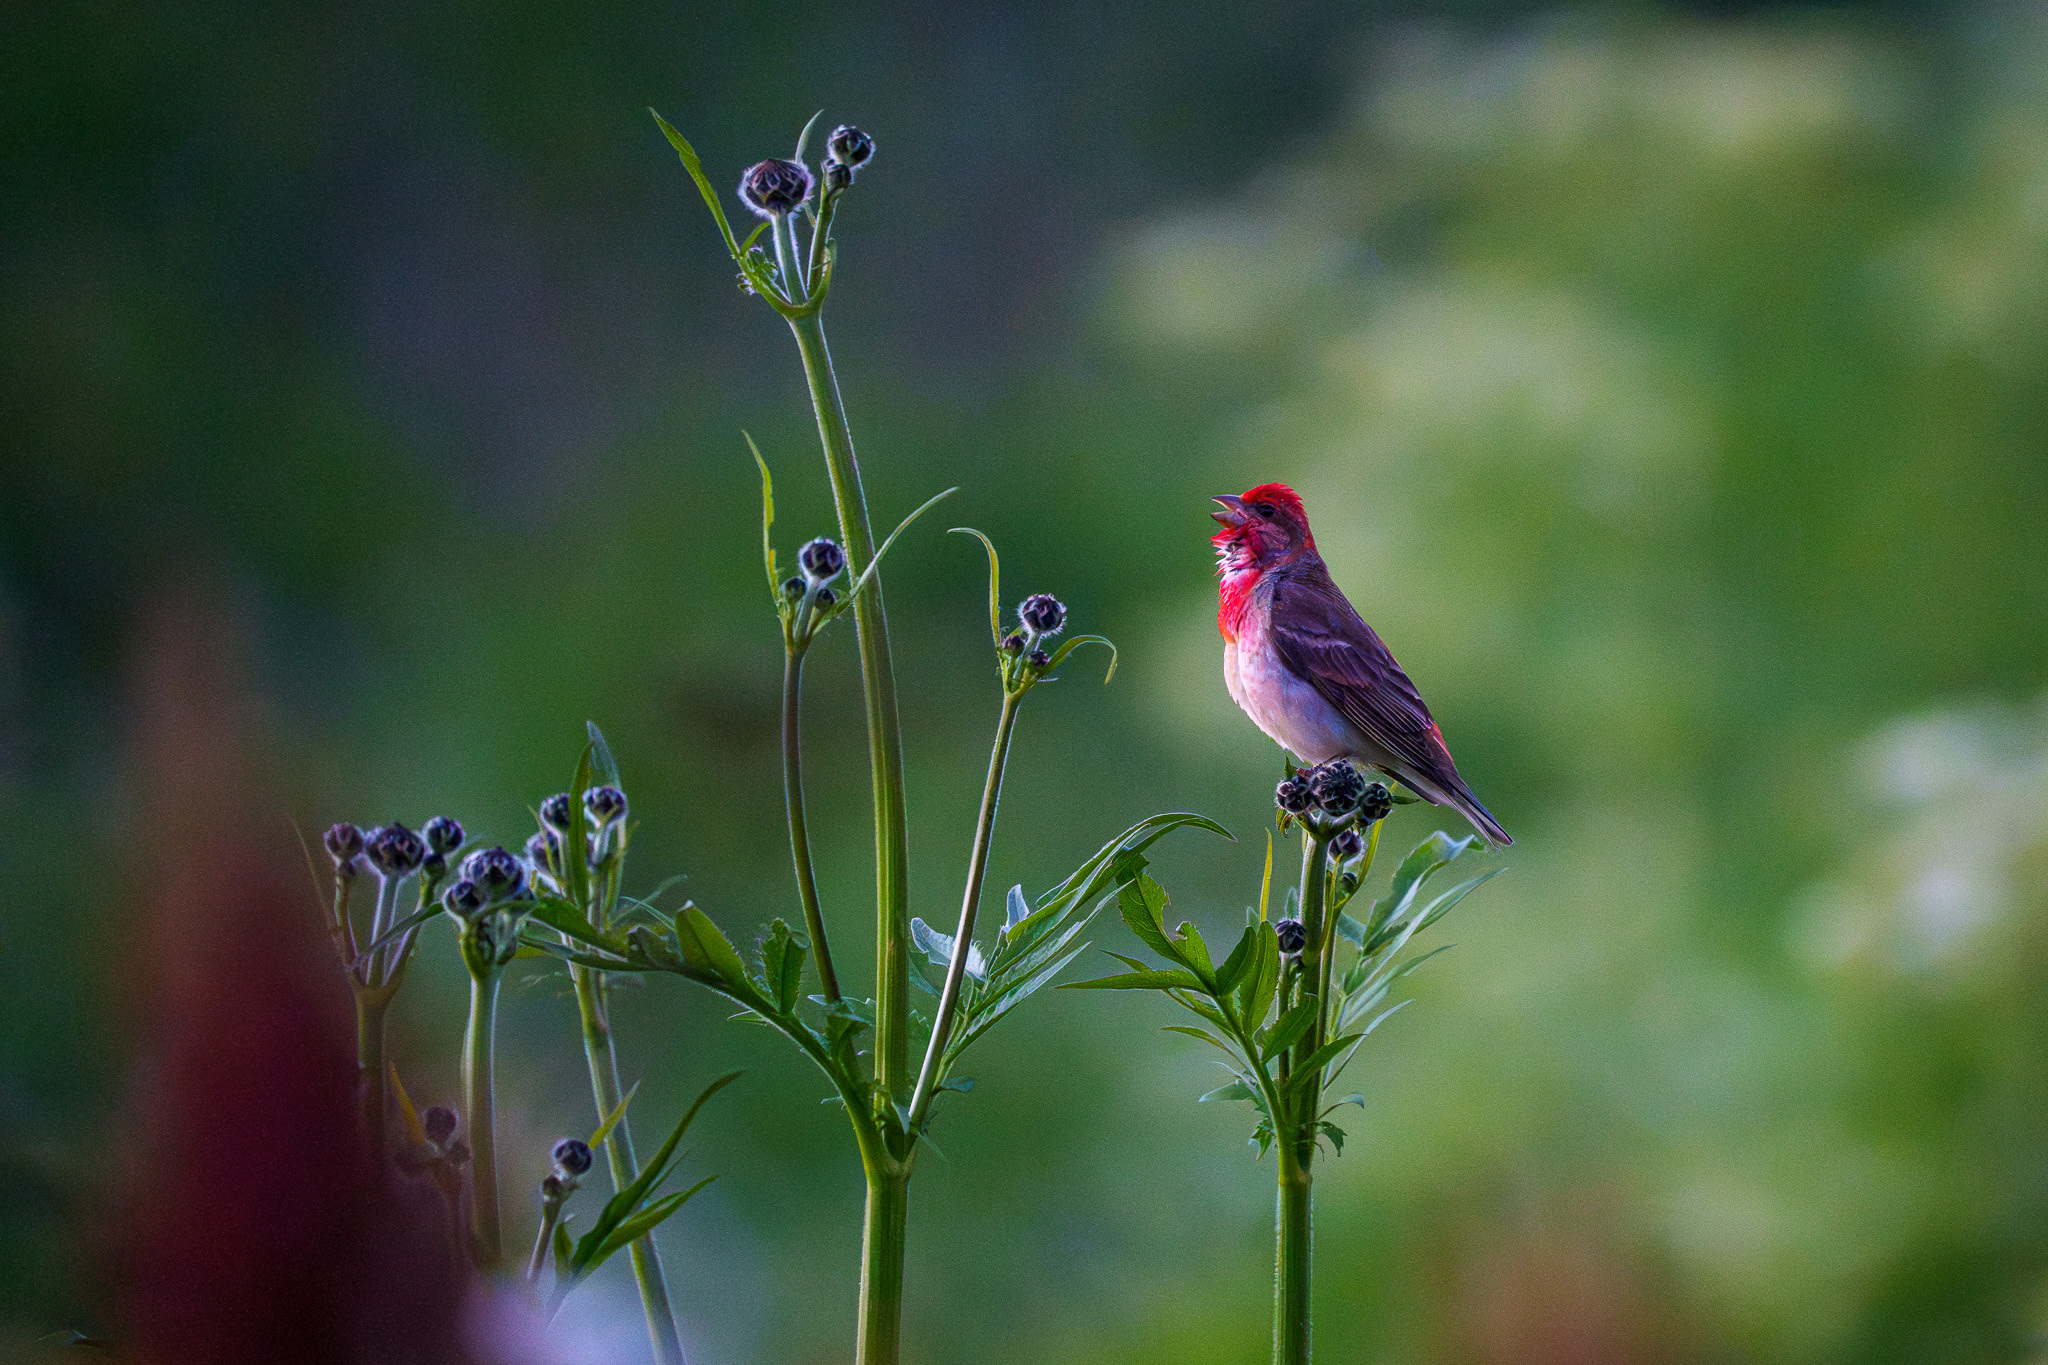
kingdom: Animalia
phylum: Chordata
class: Aves
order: Passeriformes
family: Fringillidae
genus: Carpodacus
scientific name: Carpodacus erythrinus
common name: Common rosefinch
